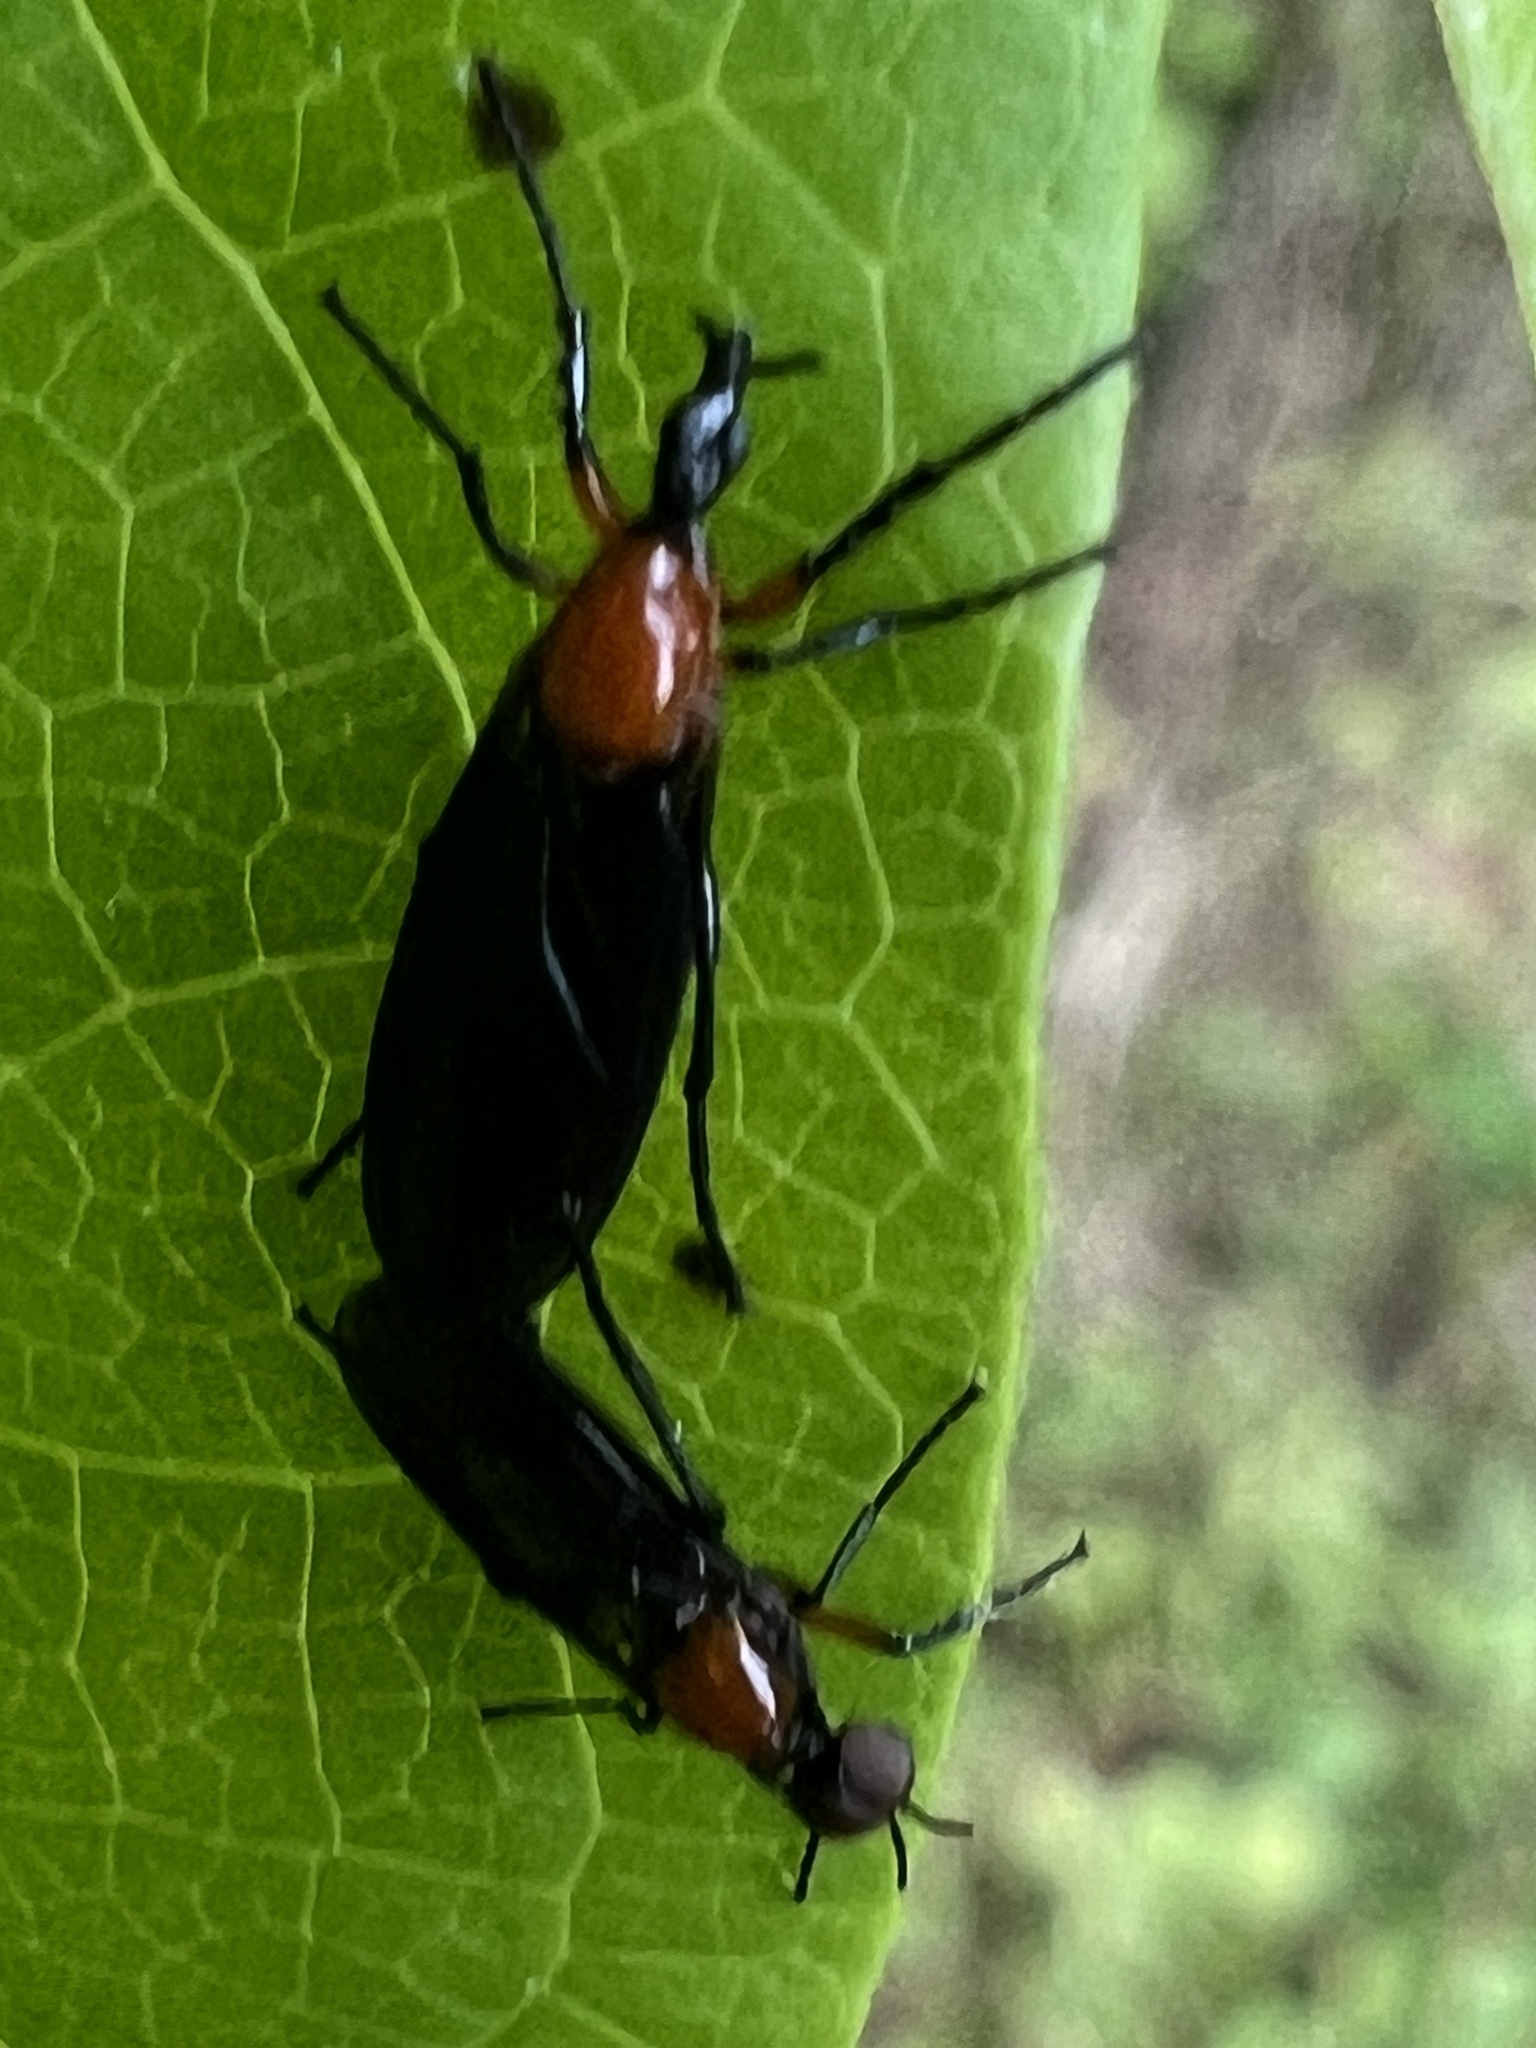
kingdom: Animalia
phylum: Arthropoda
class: Insecta
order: Diptera
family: Bibionidae
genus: Dilophus
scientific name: Dilophus spinipes
